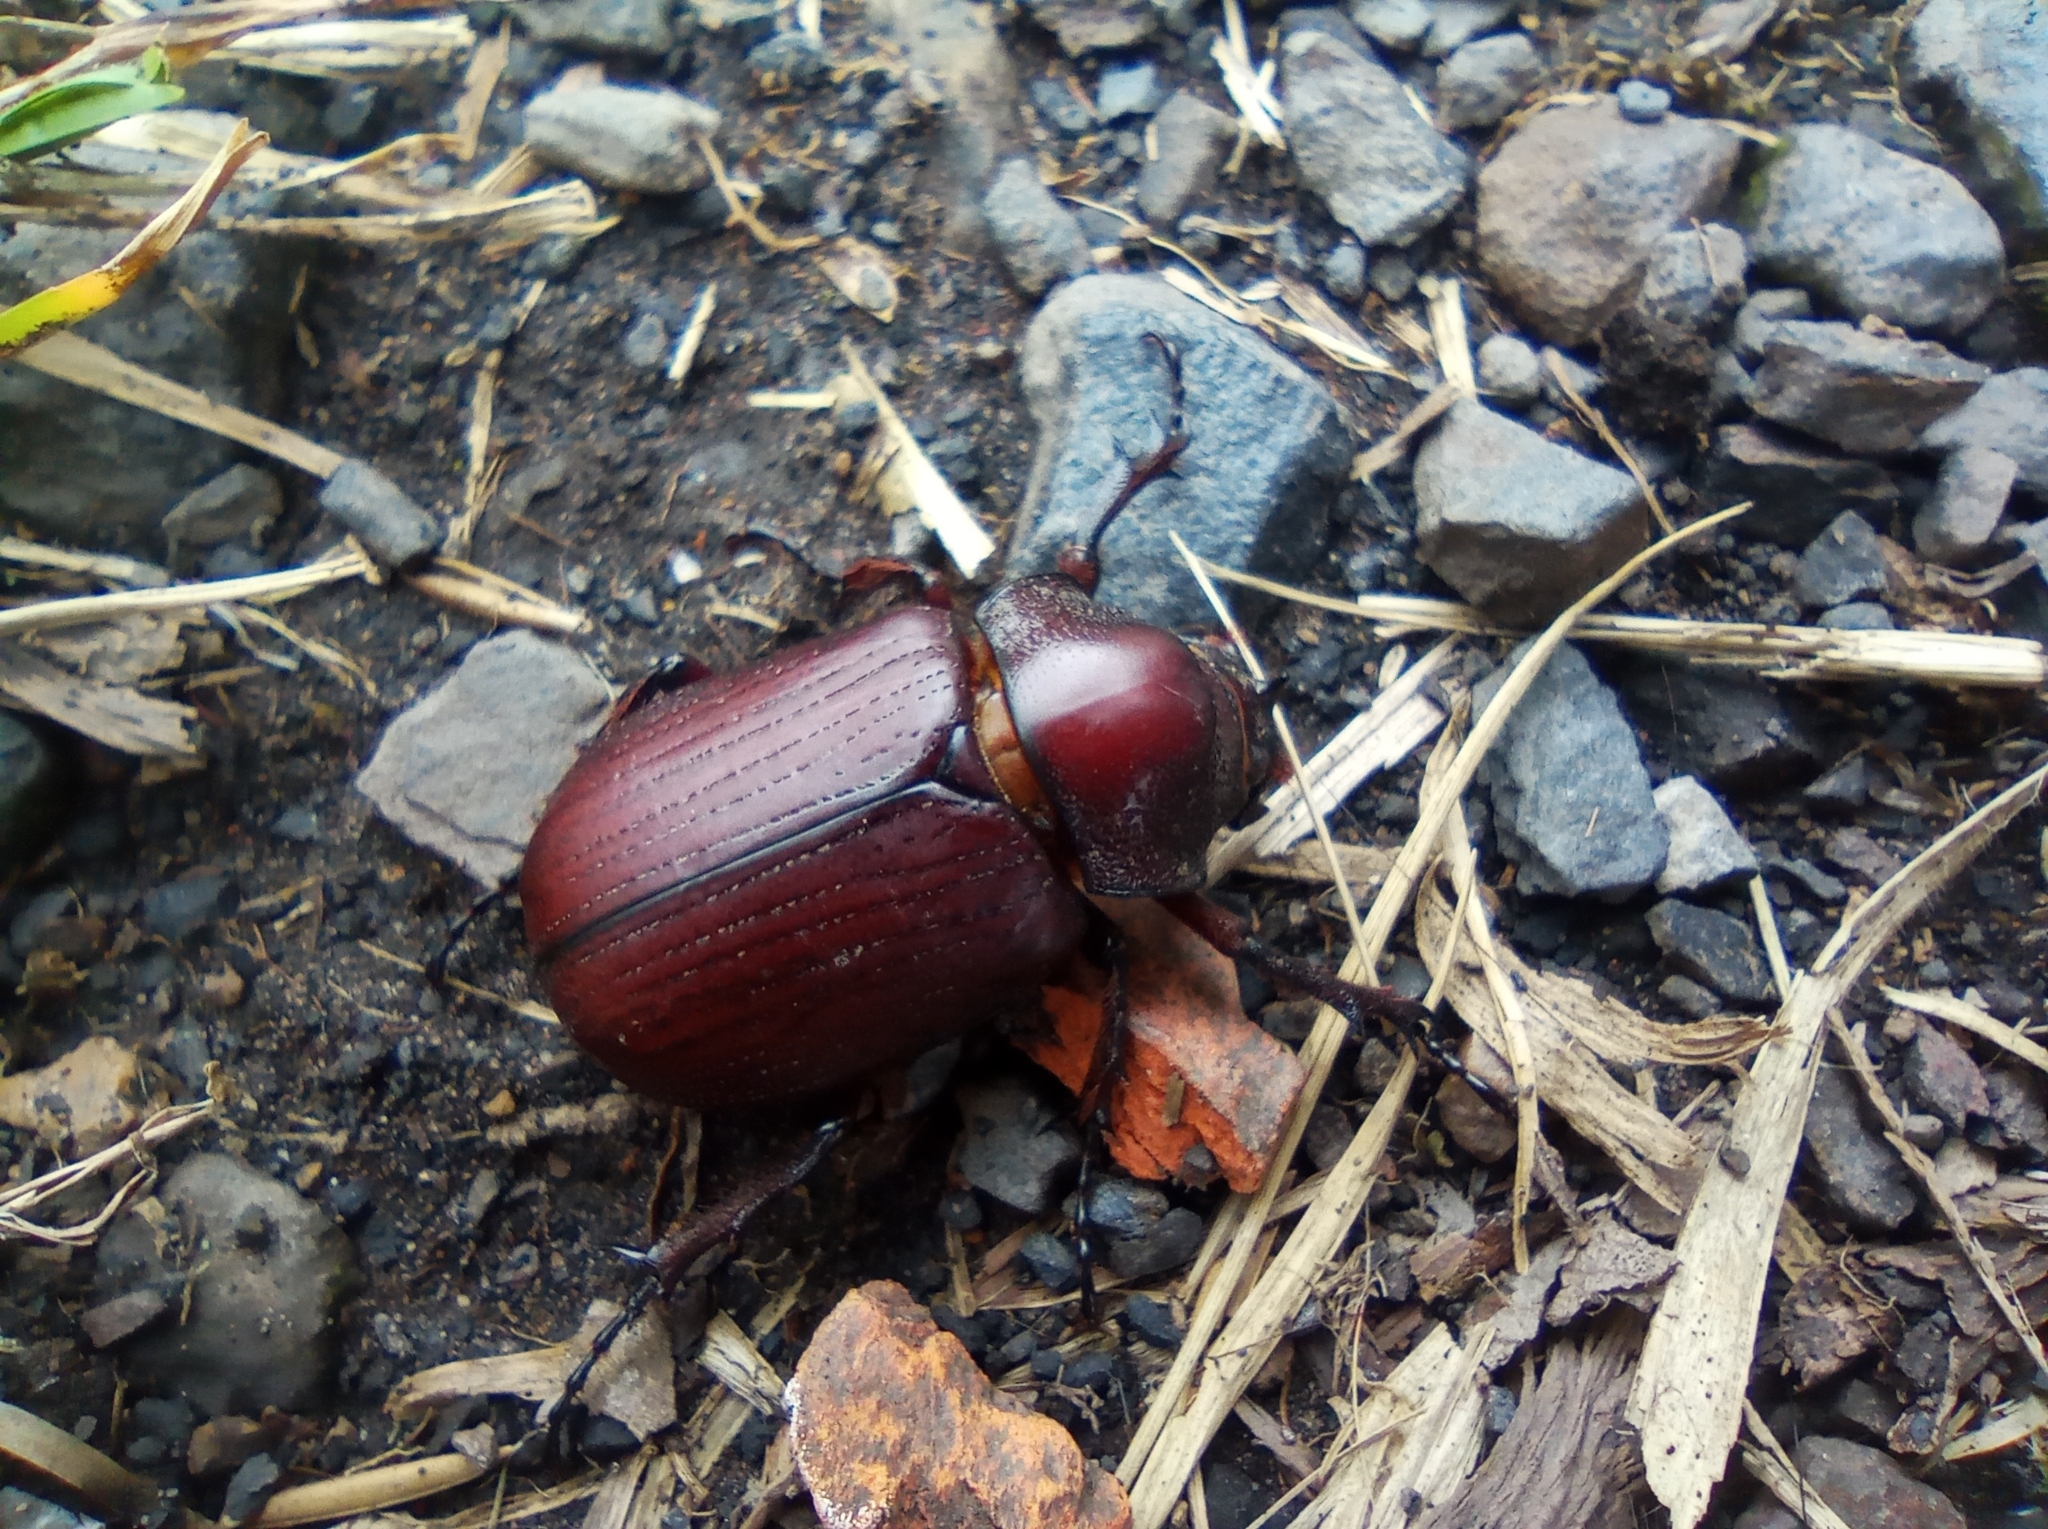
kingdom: Animalia
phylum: Arthropoda
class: Insecta
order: Coleoptera
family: Scarabaeidae
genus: Coelosis
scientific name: Coelosis biloba
